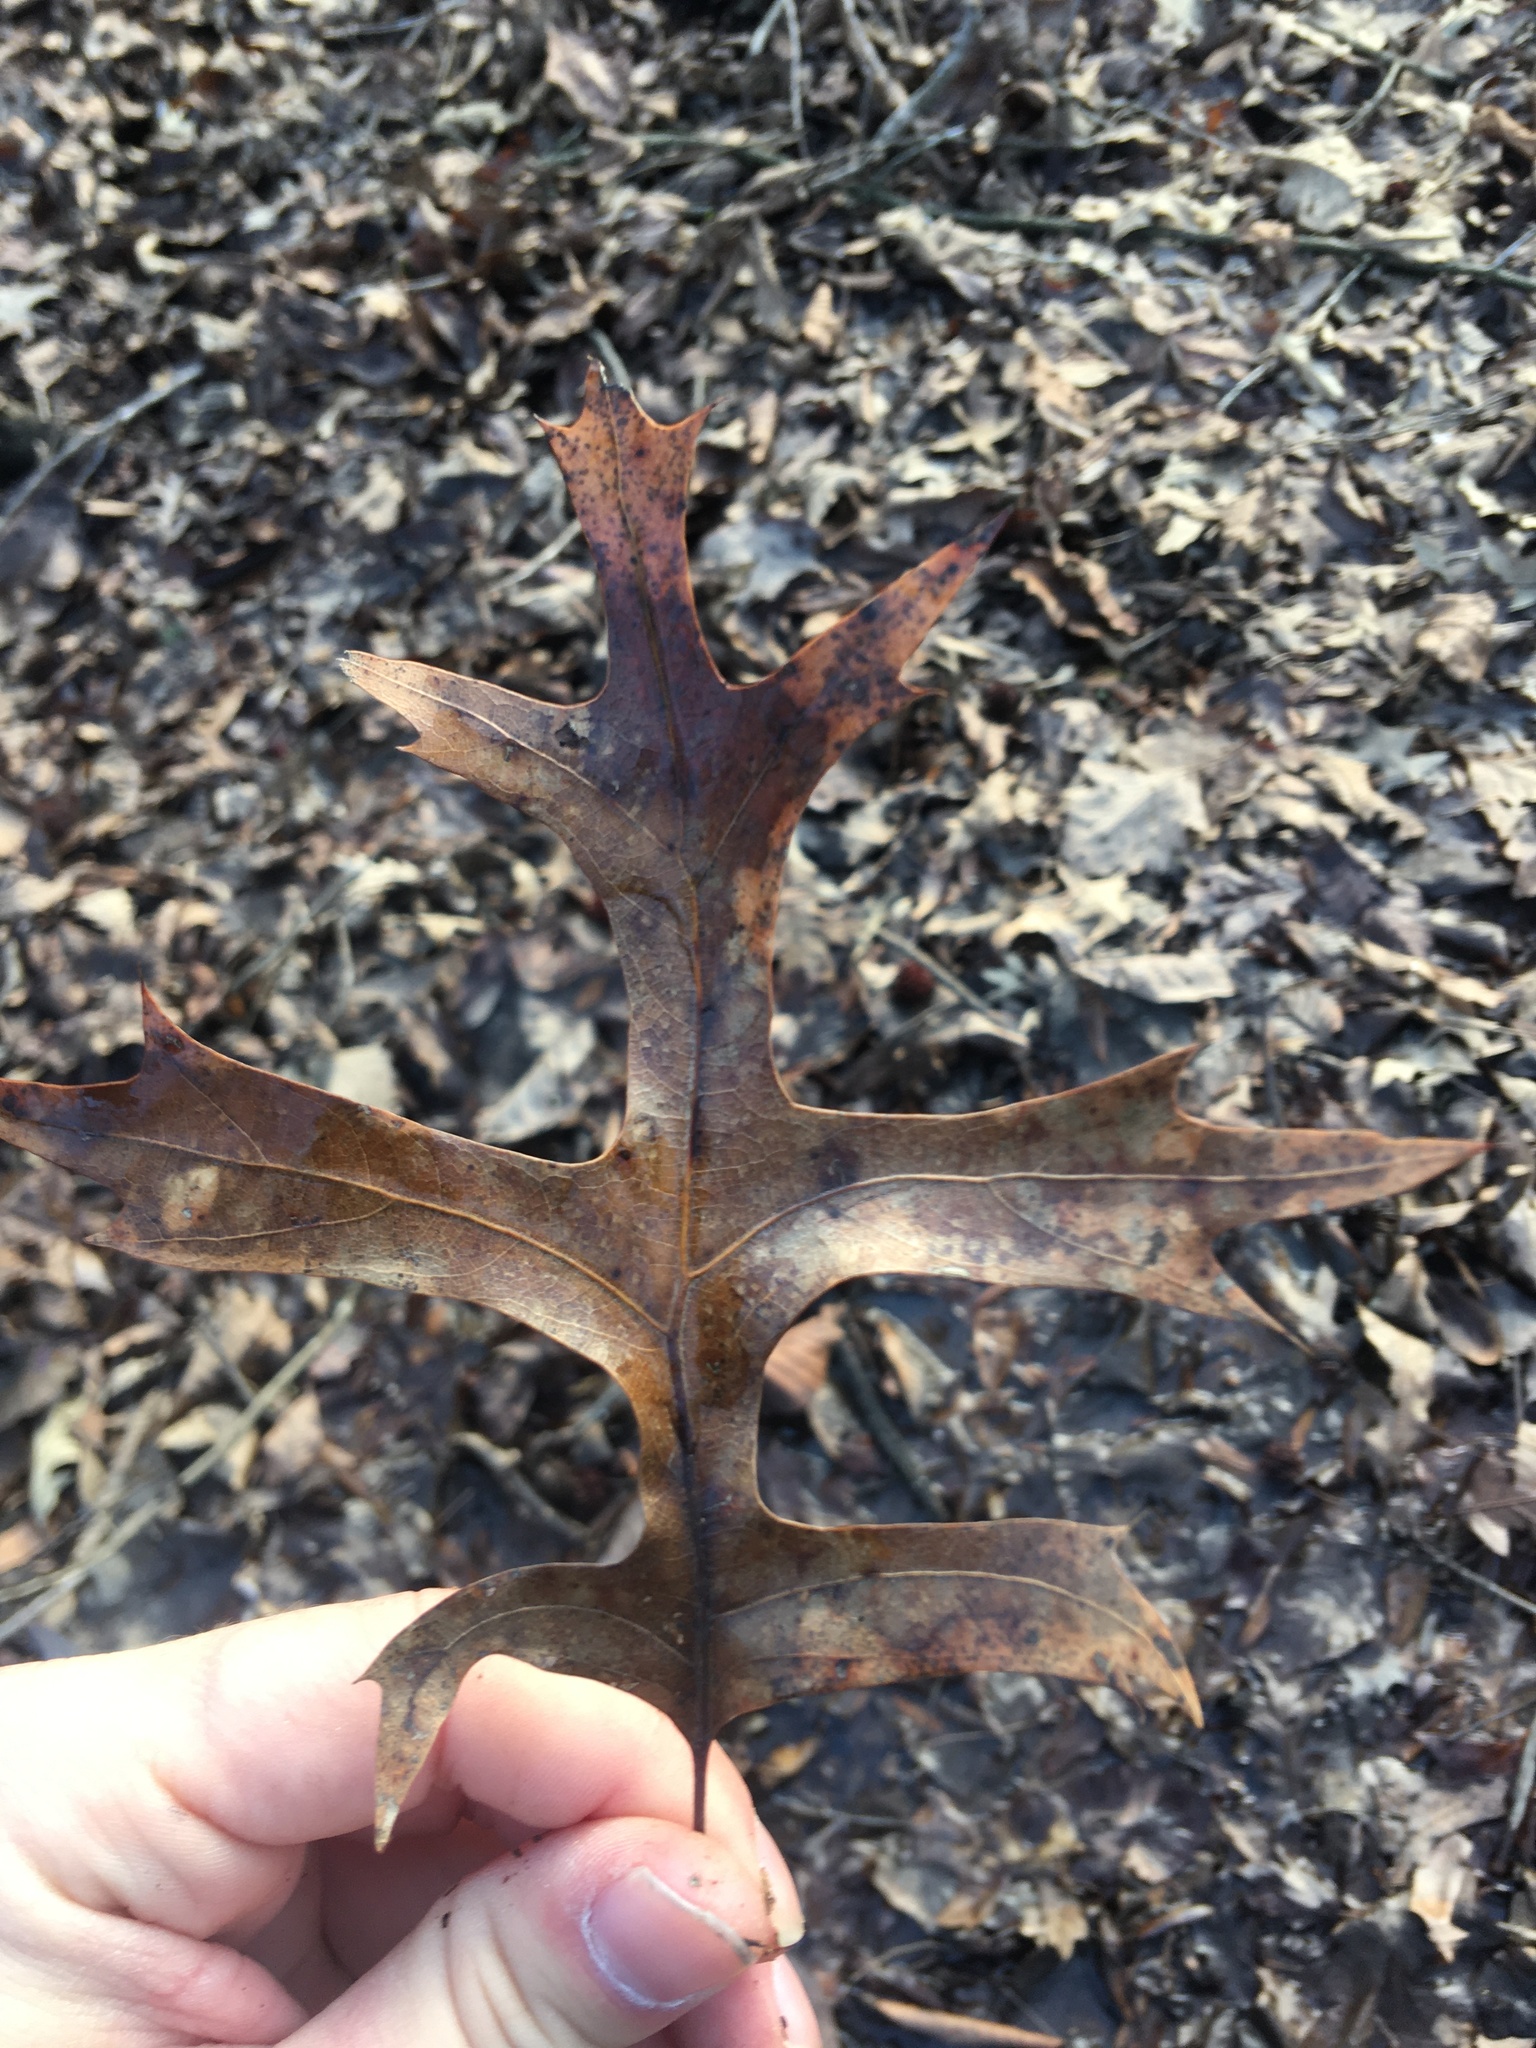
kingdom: Plantae
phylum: Tracheophyta
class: Magnoliopsida
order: Fagales
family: Fagaceae
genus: Quercus
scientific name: Quercus palustris
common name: Pin oak
